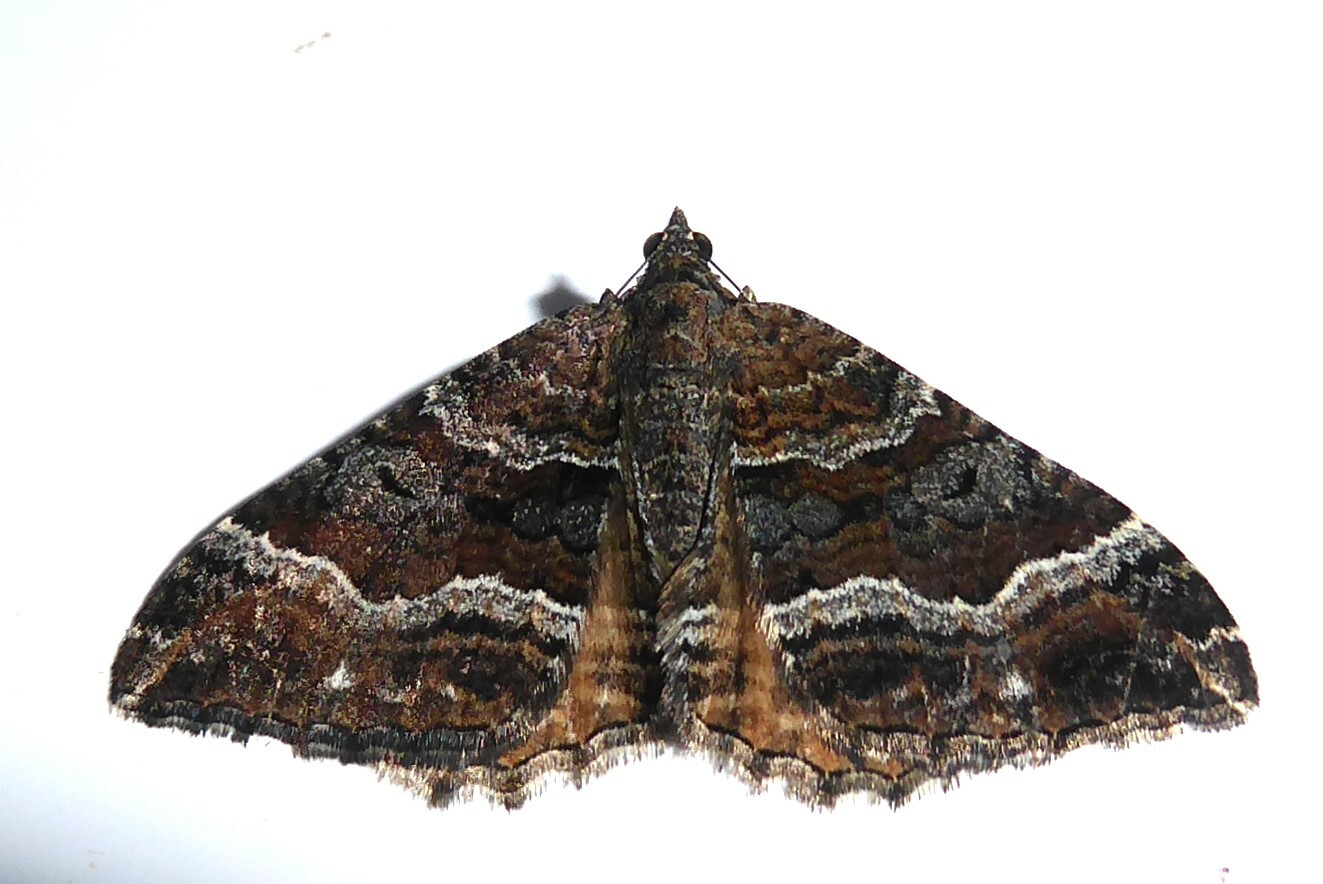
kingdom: Animalia
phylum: Arthropoda
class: Insecta
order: Lepidoptera
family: Geometridae
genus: Hydriomena
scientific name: Hydriomena deltoidata
